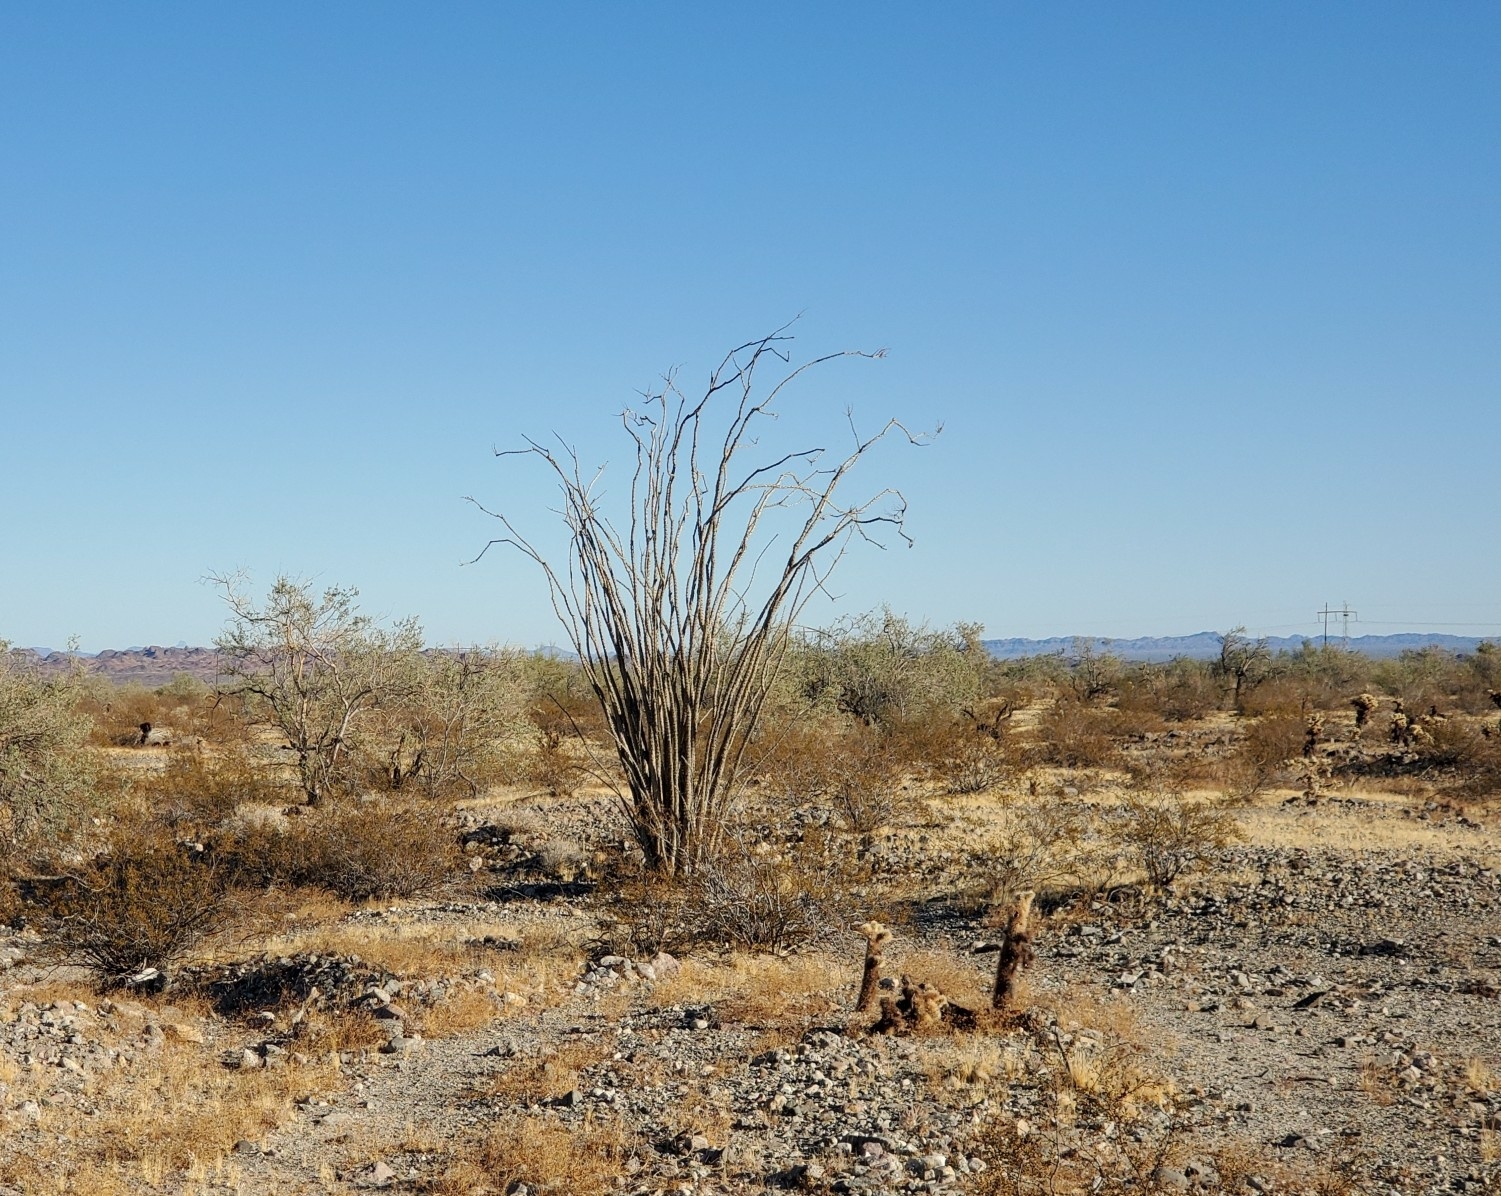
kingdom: Plantae
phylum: Tracheophyta
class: Magnoliopsida
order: Ericales
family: Fouquieriaceae
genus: Fouquieria
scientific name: Fouquieria splendens
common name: Vine-cactus
